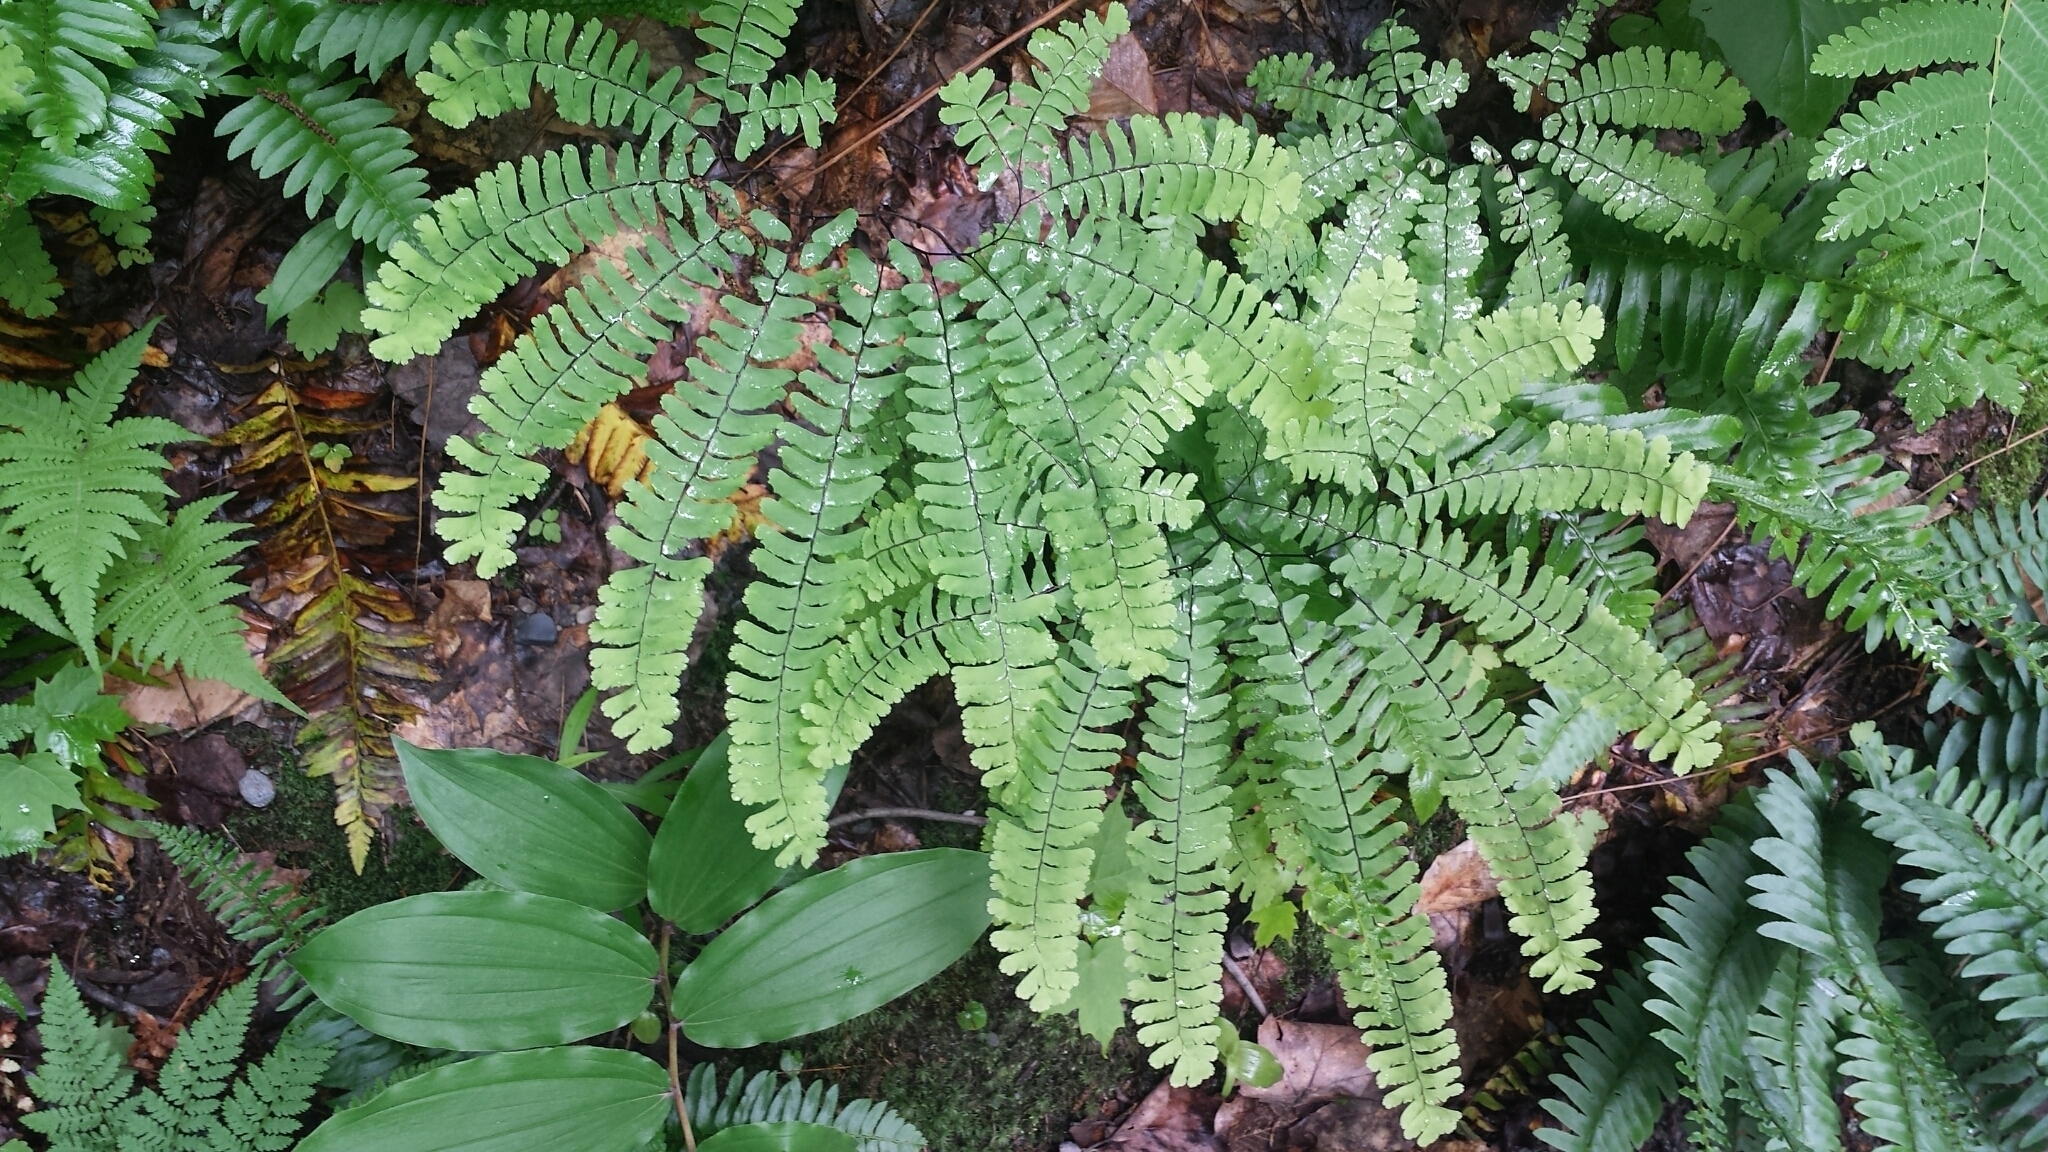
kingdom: Plantae
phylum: Tracheophyta
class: Polypodiopsida
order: Polypodiales
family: Pteridaceae
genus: Adiantum
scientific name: Adiantum pedatum
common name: Five-finger fern
